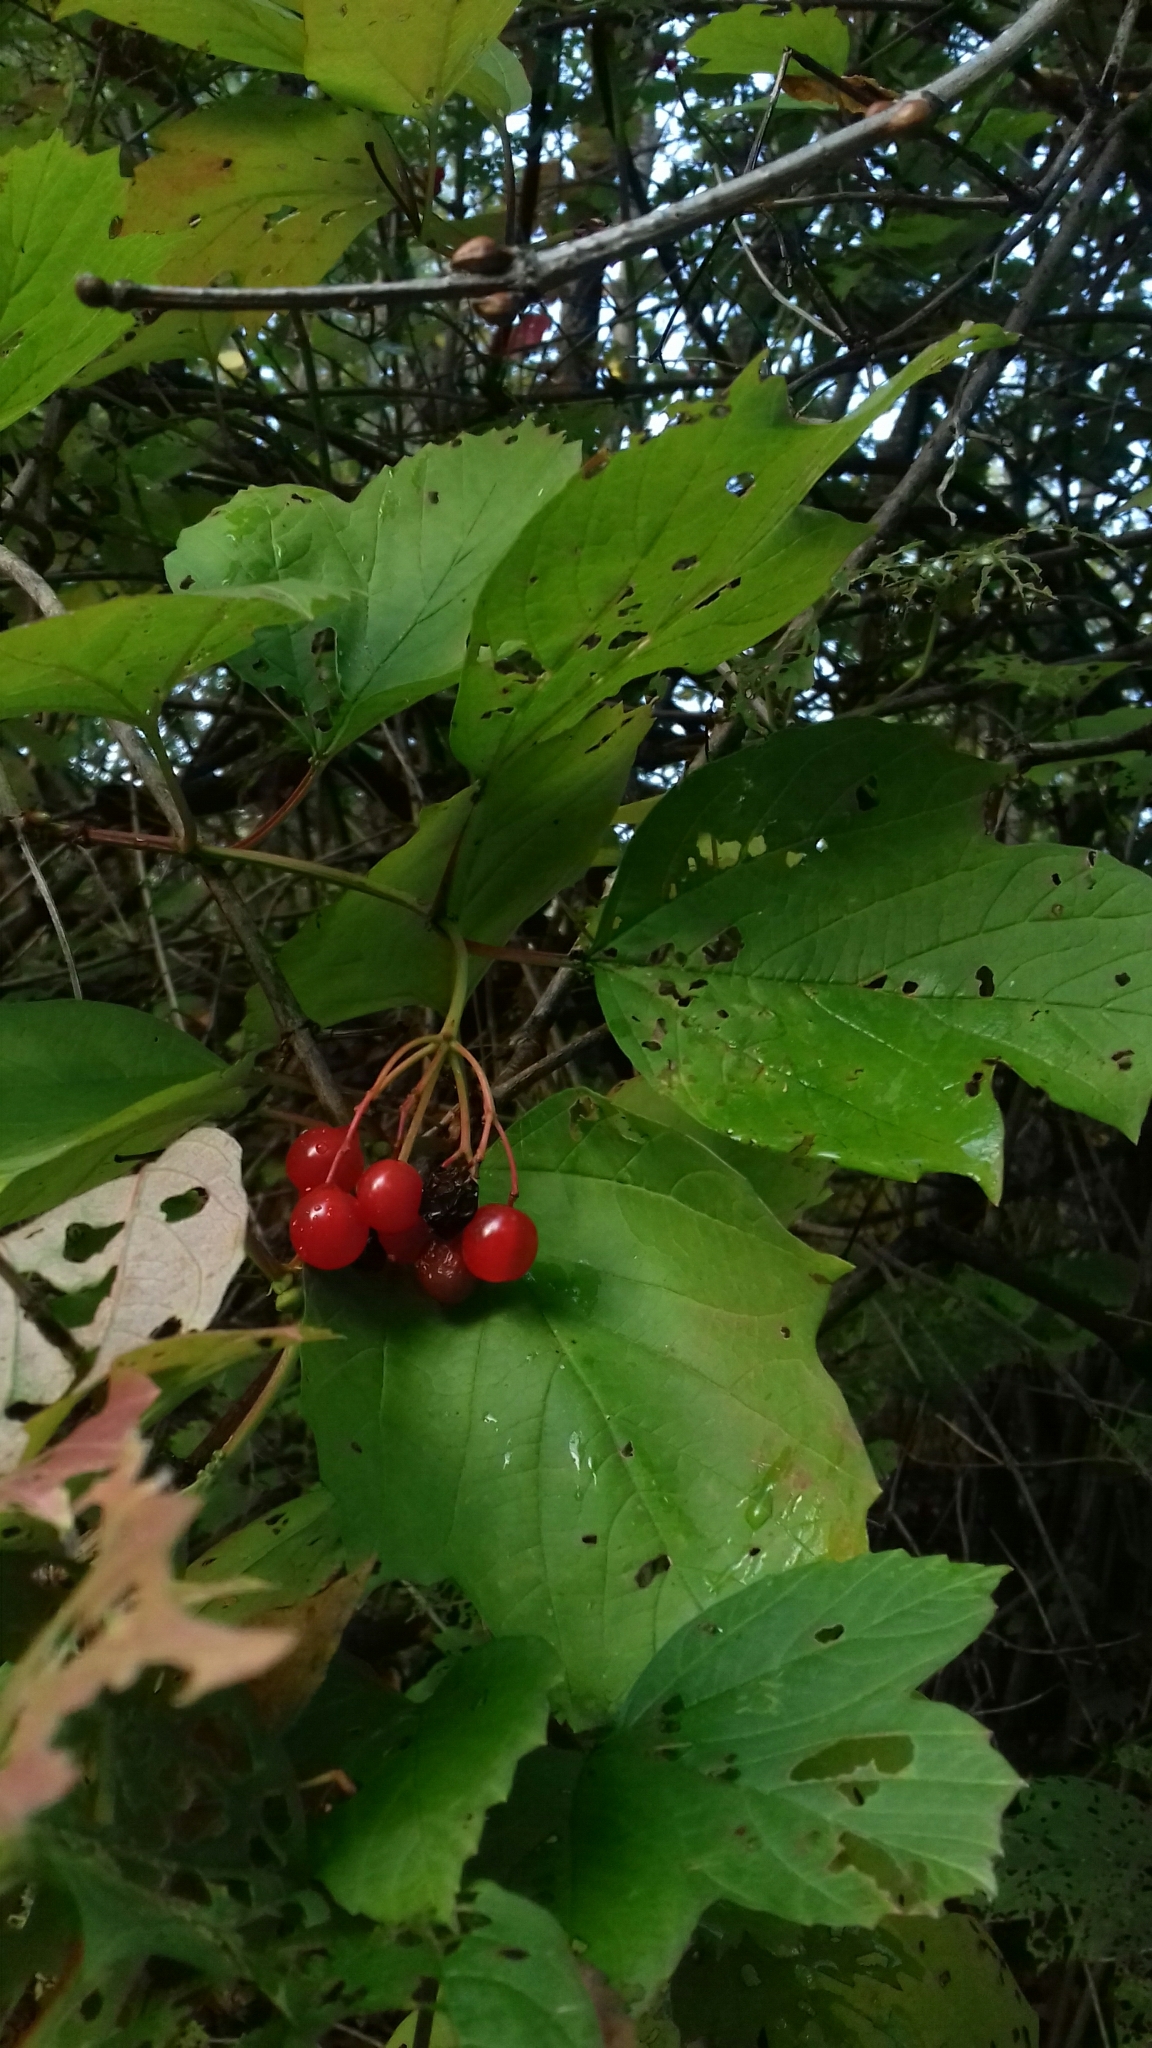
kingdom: Plantae
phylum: Tracheophyta
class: Magnoliopsida
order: Dipsacales
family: Viburnaceae
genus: Viburnum
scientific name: Viburnum opulus
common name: Guelder-rose
